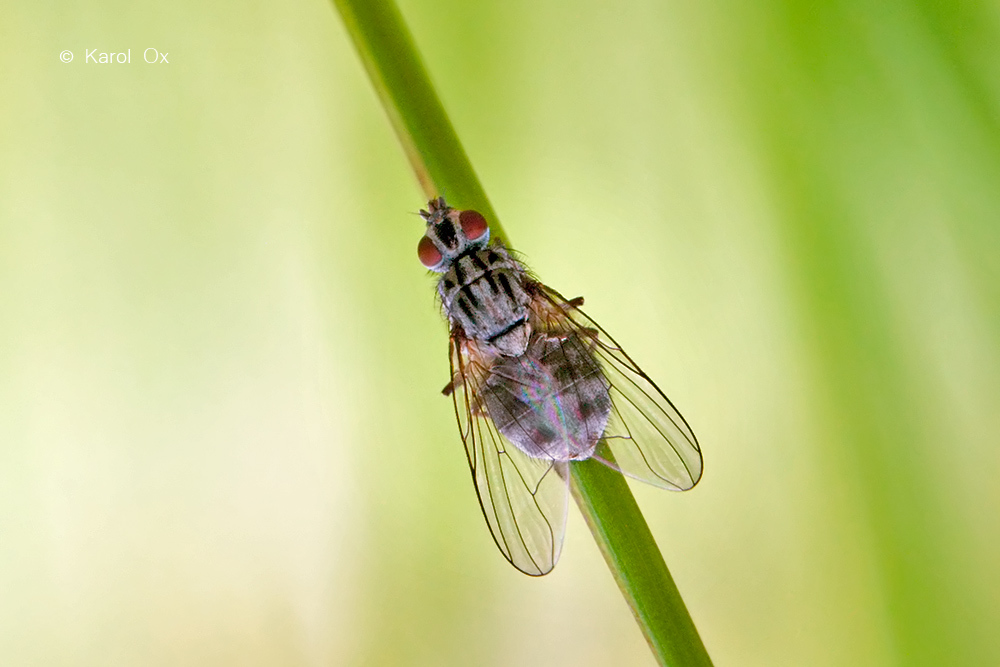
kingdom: Animalia
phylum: Arthropoda
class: Insecta
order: Diptera
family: Muscidae
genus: Haematobosca
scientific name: Haematobosca stimulans
